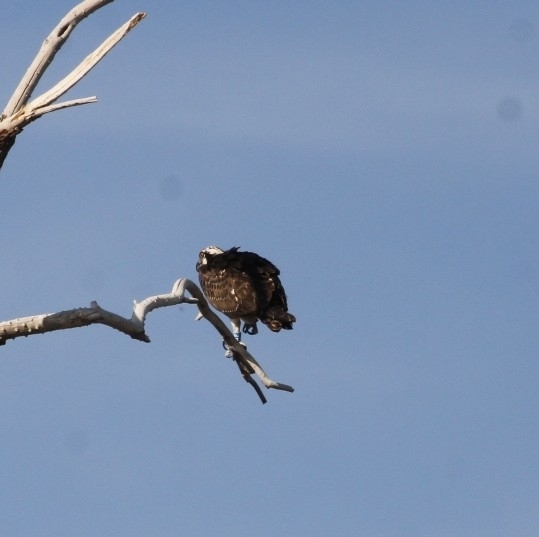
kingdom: Animalia
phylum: Chordata
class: Aves
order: Accipitriformes
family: Pandionidae
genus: Pandion
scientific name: Pandion haliaetus
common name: Osprey
